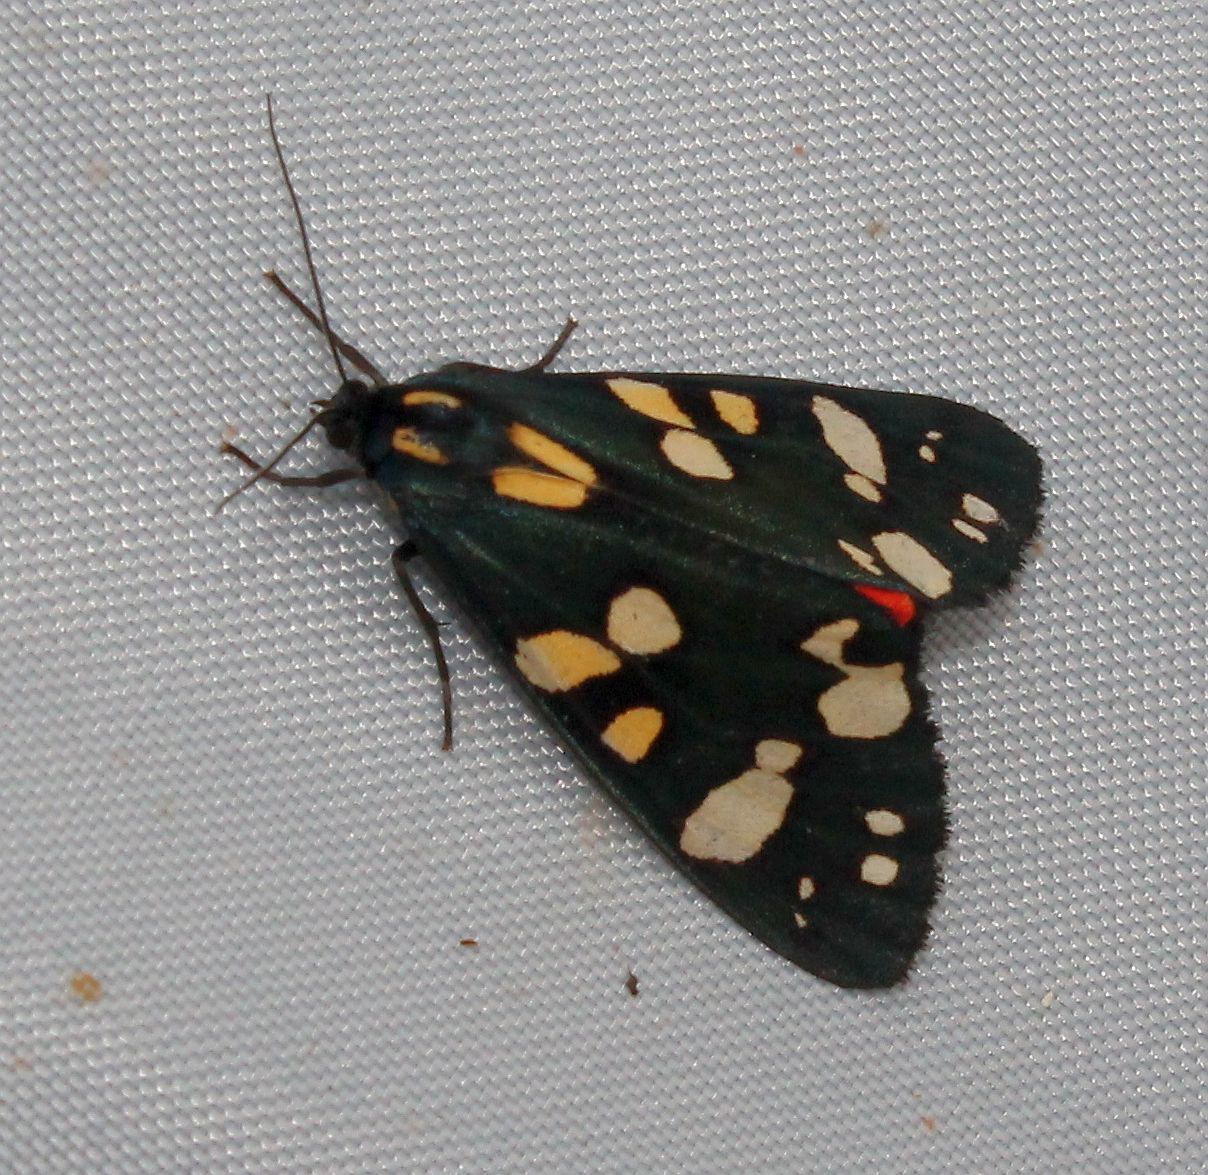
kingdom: Animalia
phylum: Arthropoda
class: Insecta
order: Lepidoptera
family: Erebidae
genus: Callimorpha
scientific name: Callimorpha dominula
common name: Scarlet tiger
